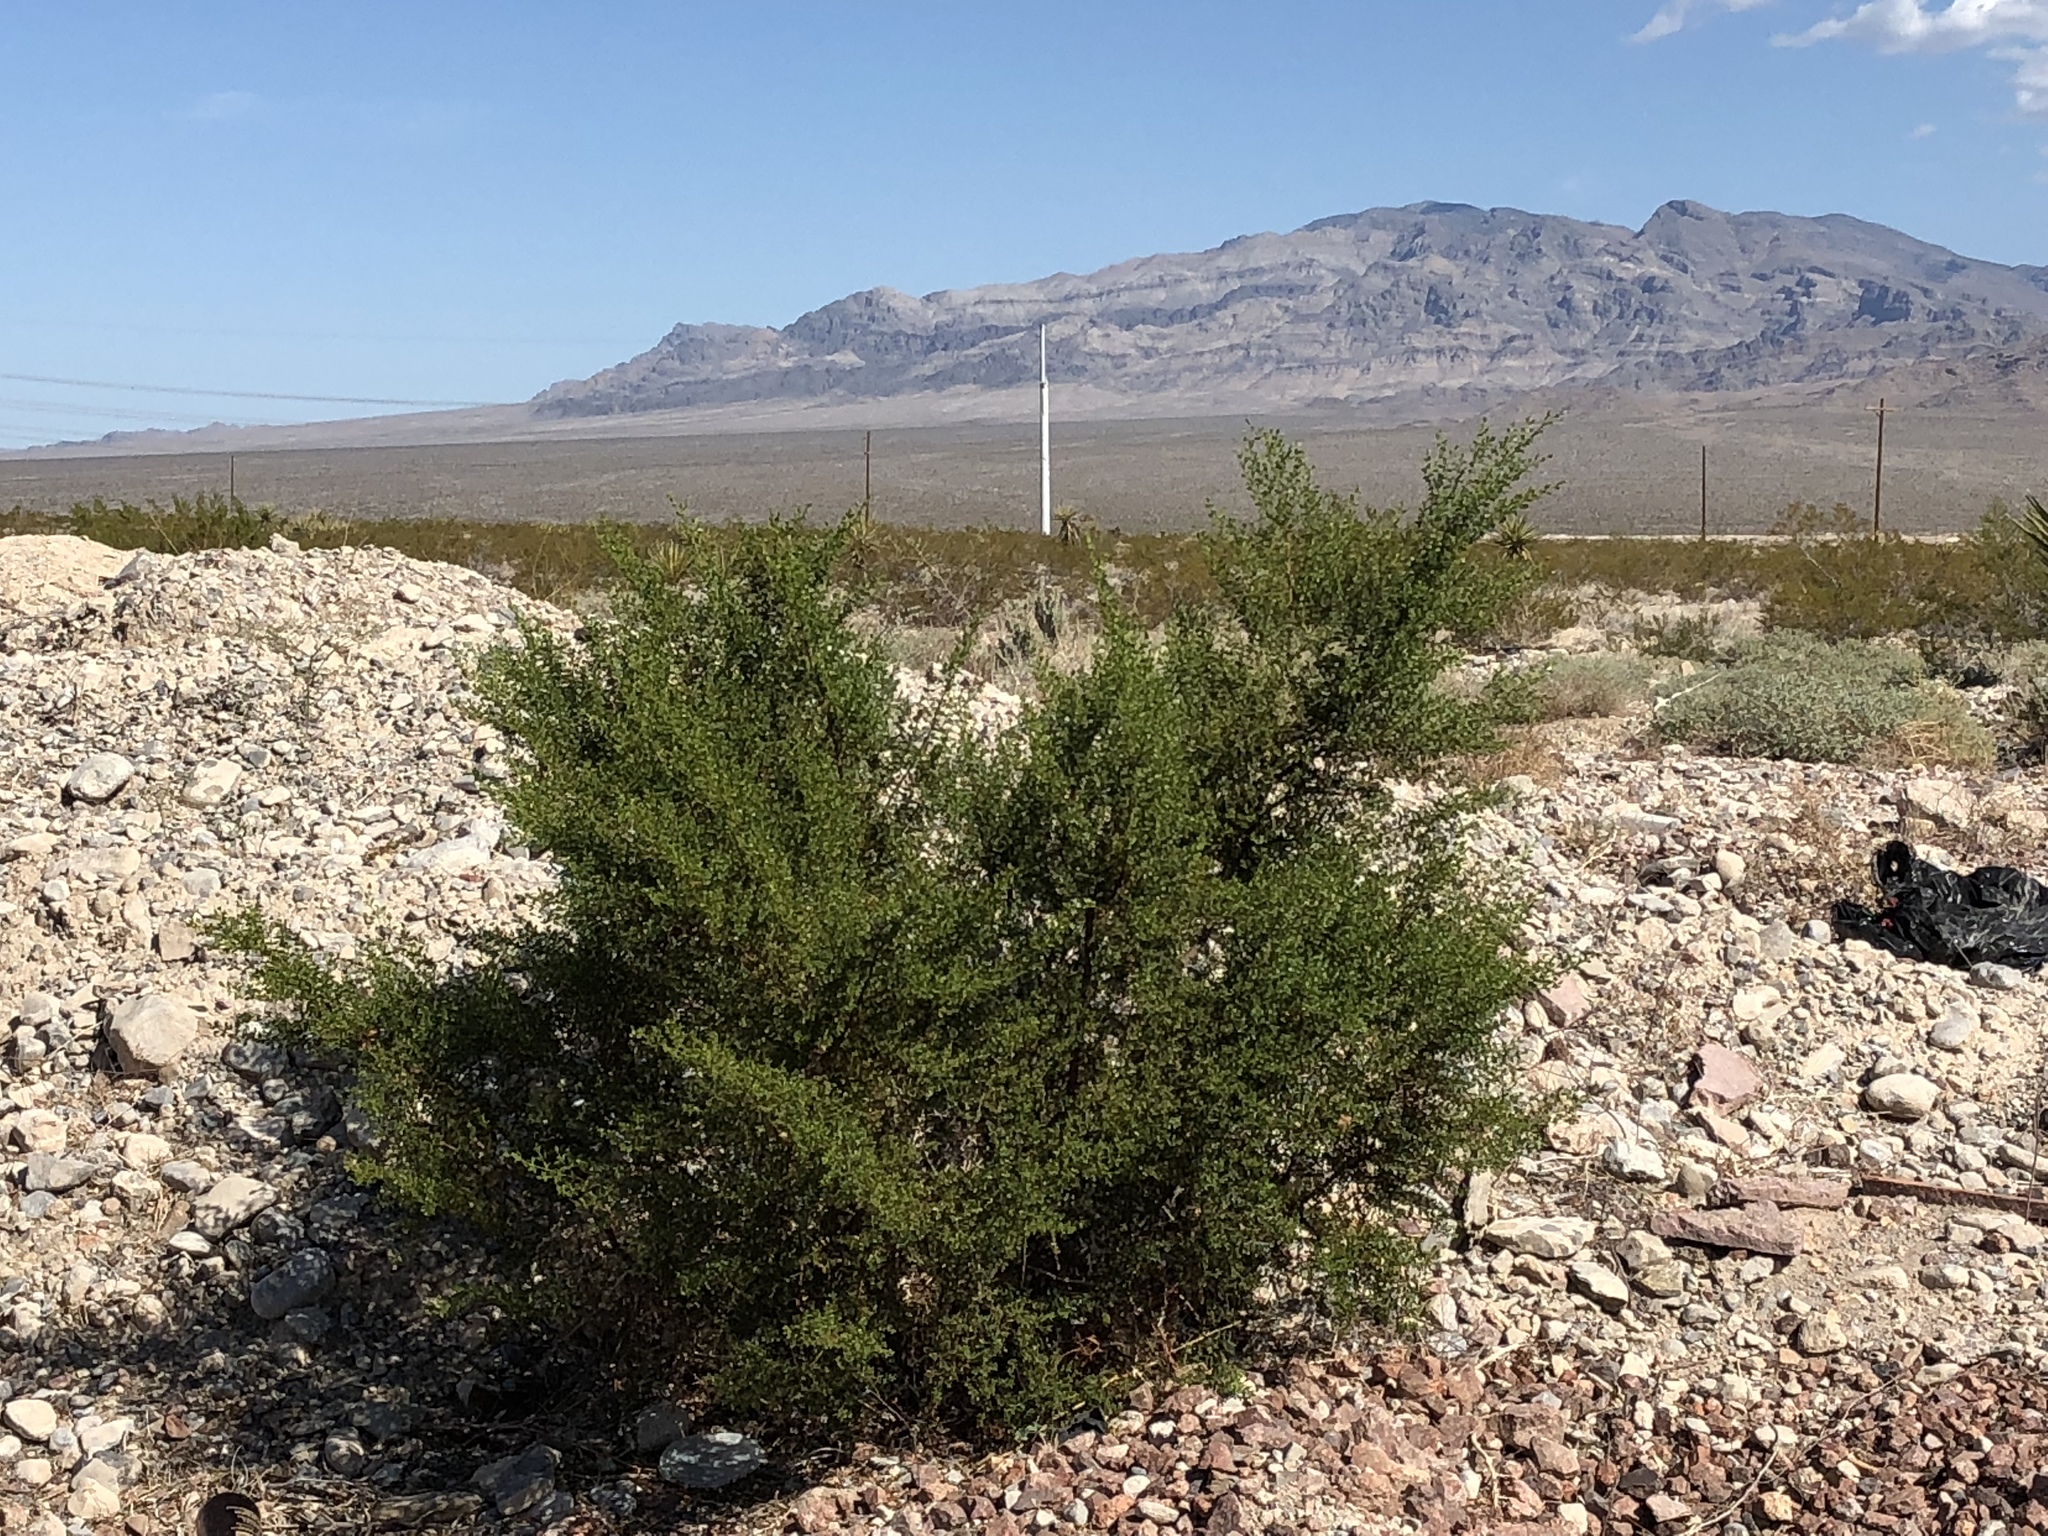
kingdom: Plantae
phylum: Tracheophyta
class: Magnoliopsida
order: Zygophyllales
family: Zygophyllaceae
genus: Larrea
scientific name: Larrea tridentata
